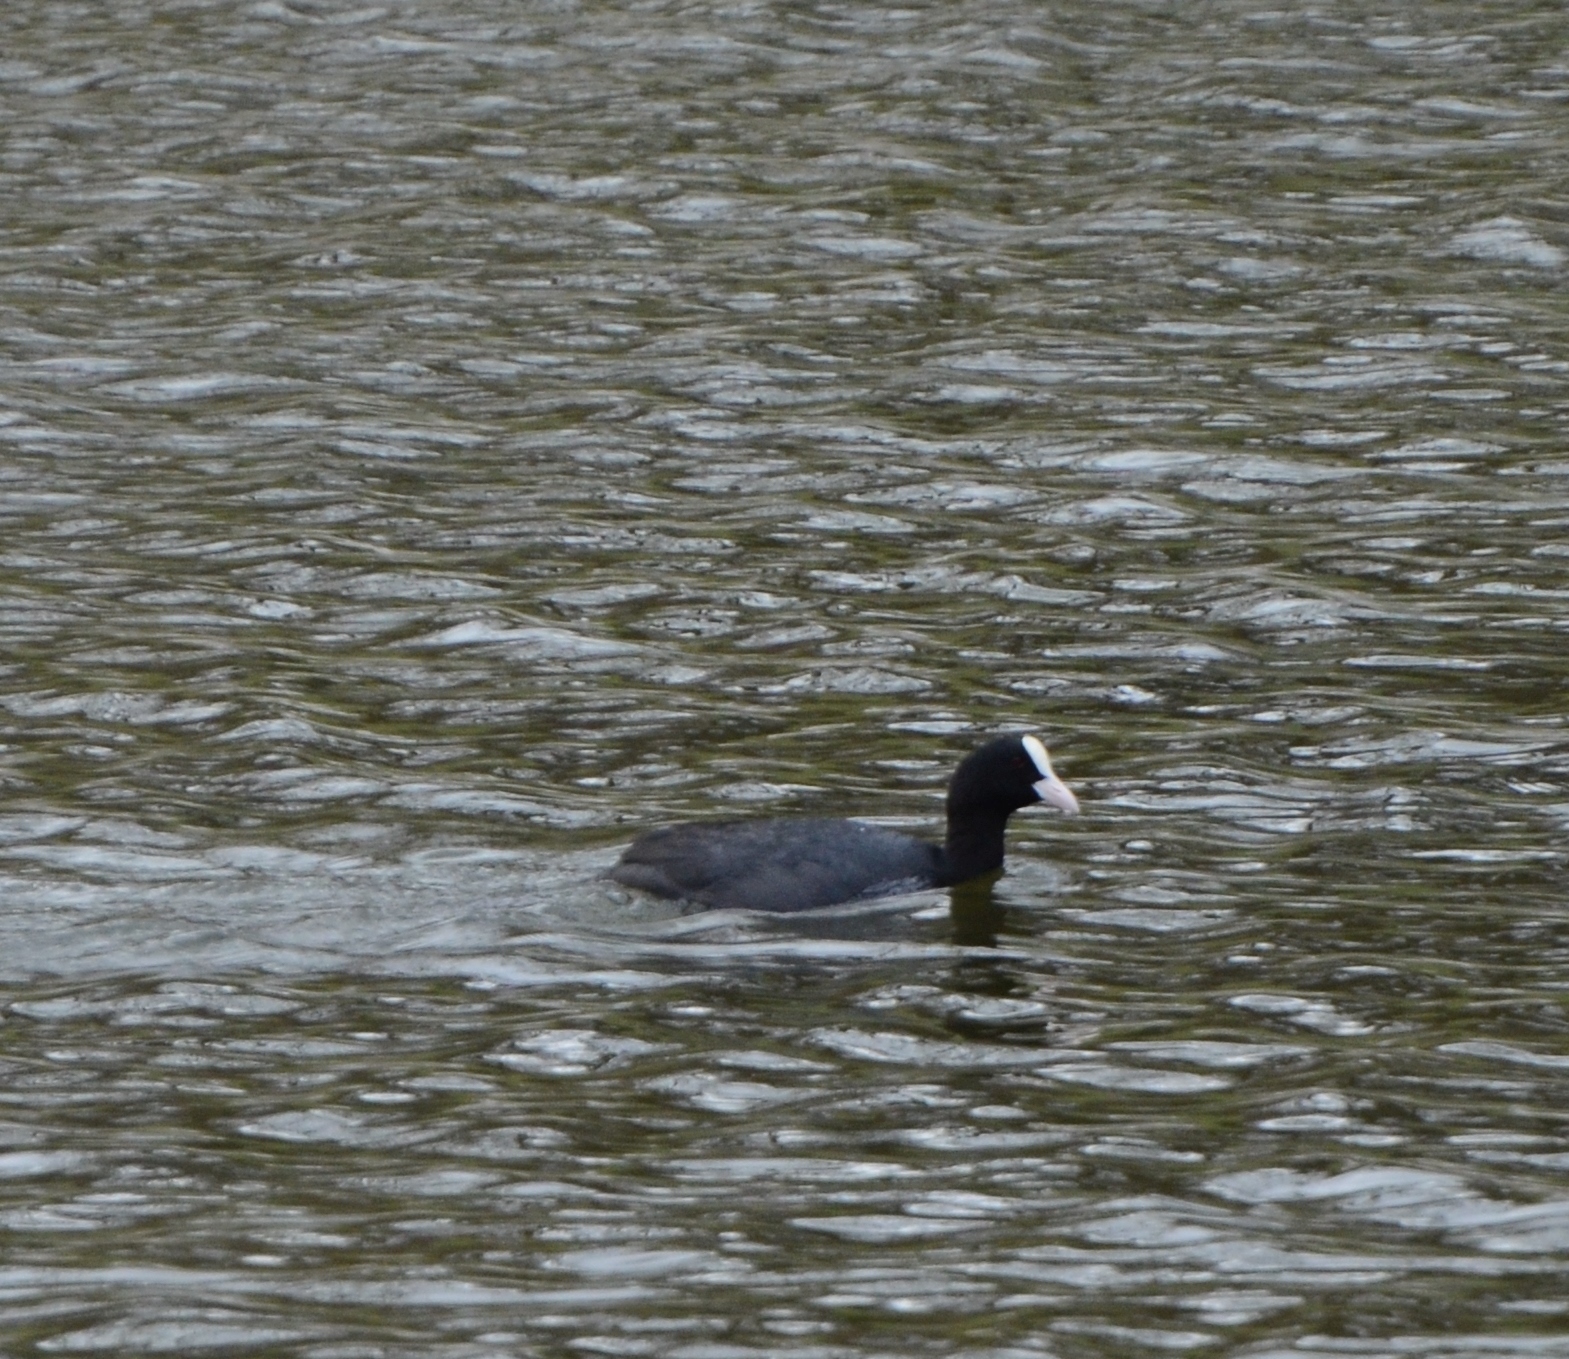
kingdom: Animalia
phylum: Chordata
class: Aves
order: Gruiformes
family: Rallidae
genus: Fulica
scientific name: Fulica atra
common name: Eurasian coot
